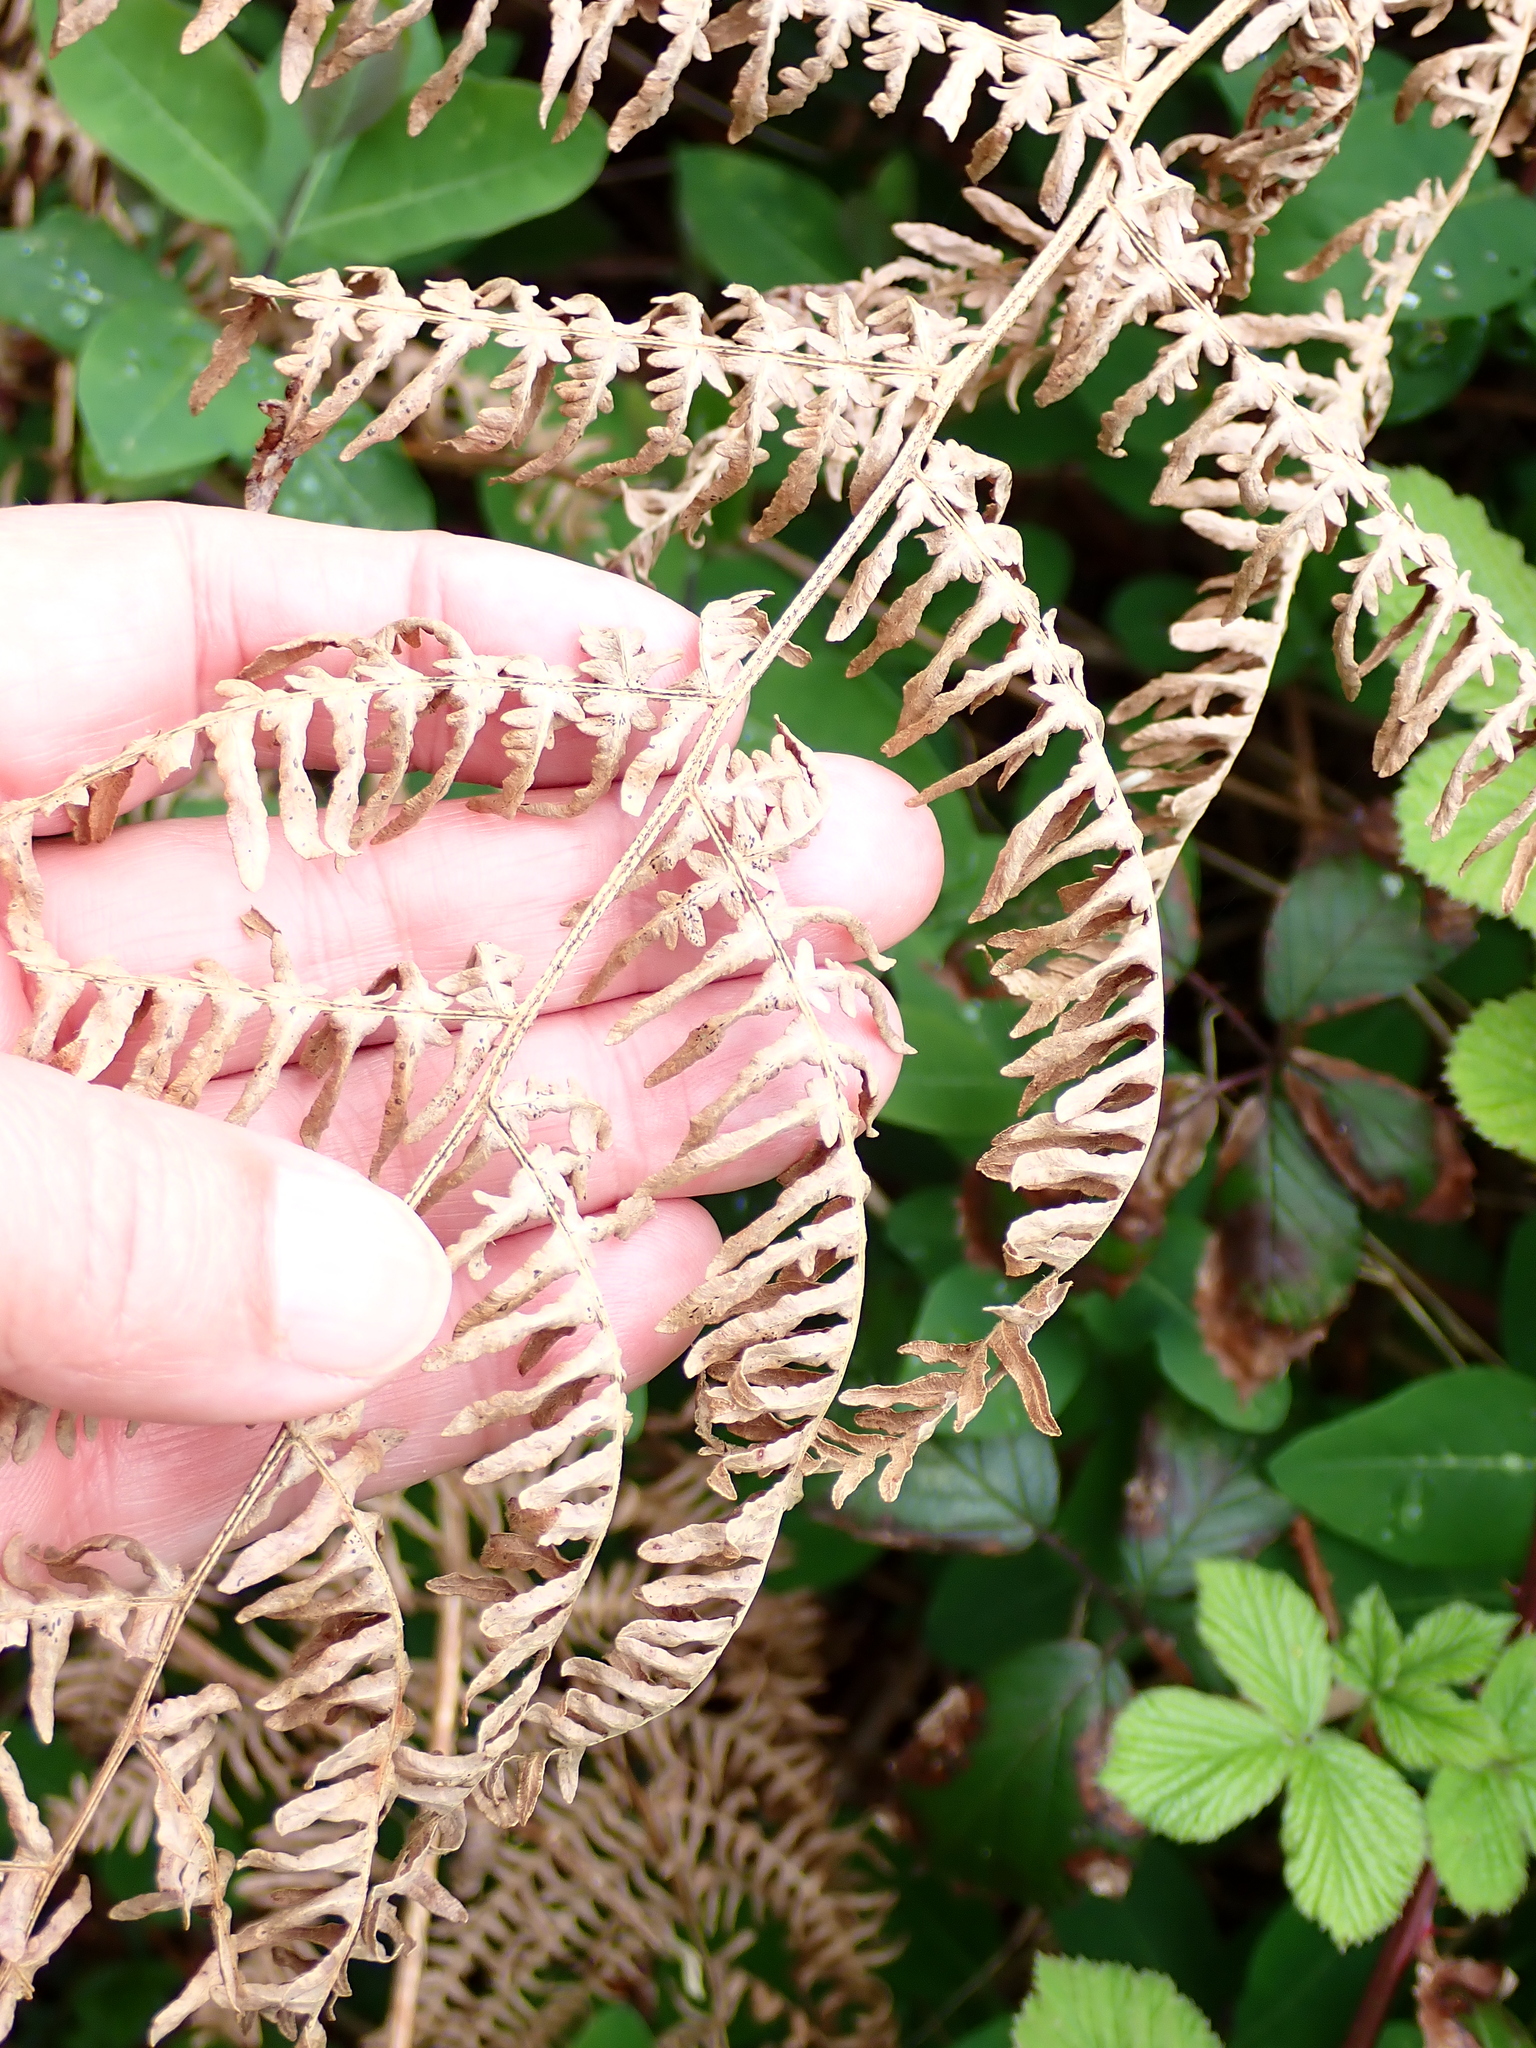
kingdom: Plantae
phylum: Tracheophyta
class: Polypodiopsida
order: Polypodiales
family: Dennstaedtiaceae
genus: Pteridium
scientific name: Pteridium aquilinum
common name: Bracken
